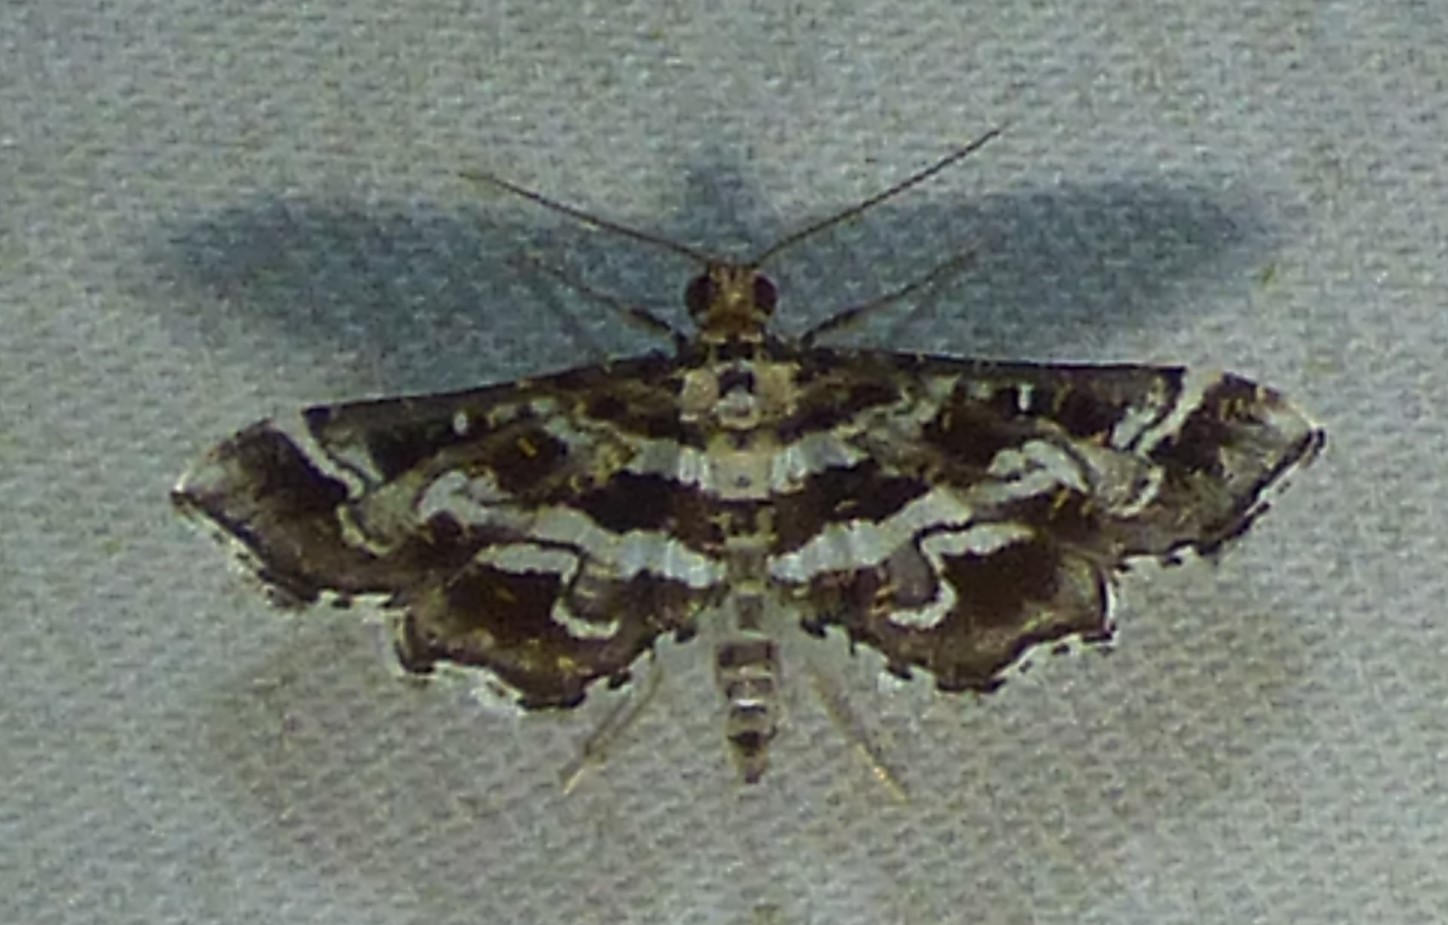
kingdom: Animalia
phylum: Arthropoda
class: Insecta
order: Lepidoptera
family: Crambidae
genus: Diasemiopsis
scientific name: Diasemiopsis ramburialis
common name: Vagrant china-mark
